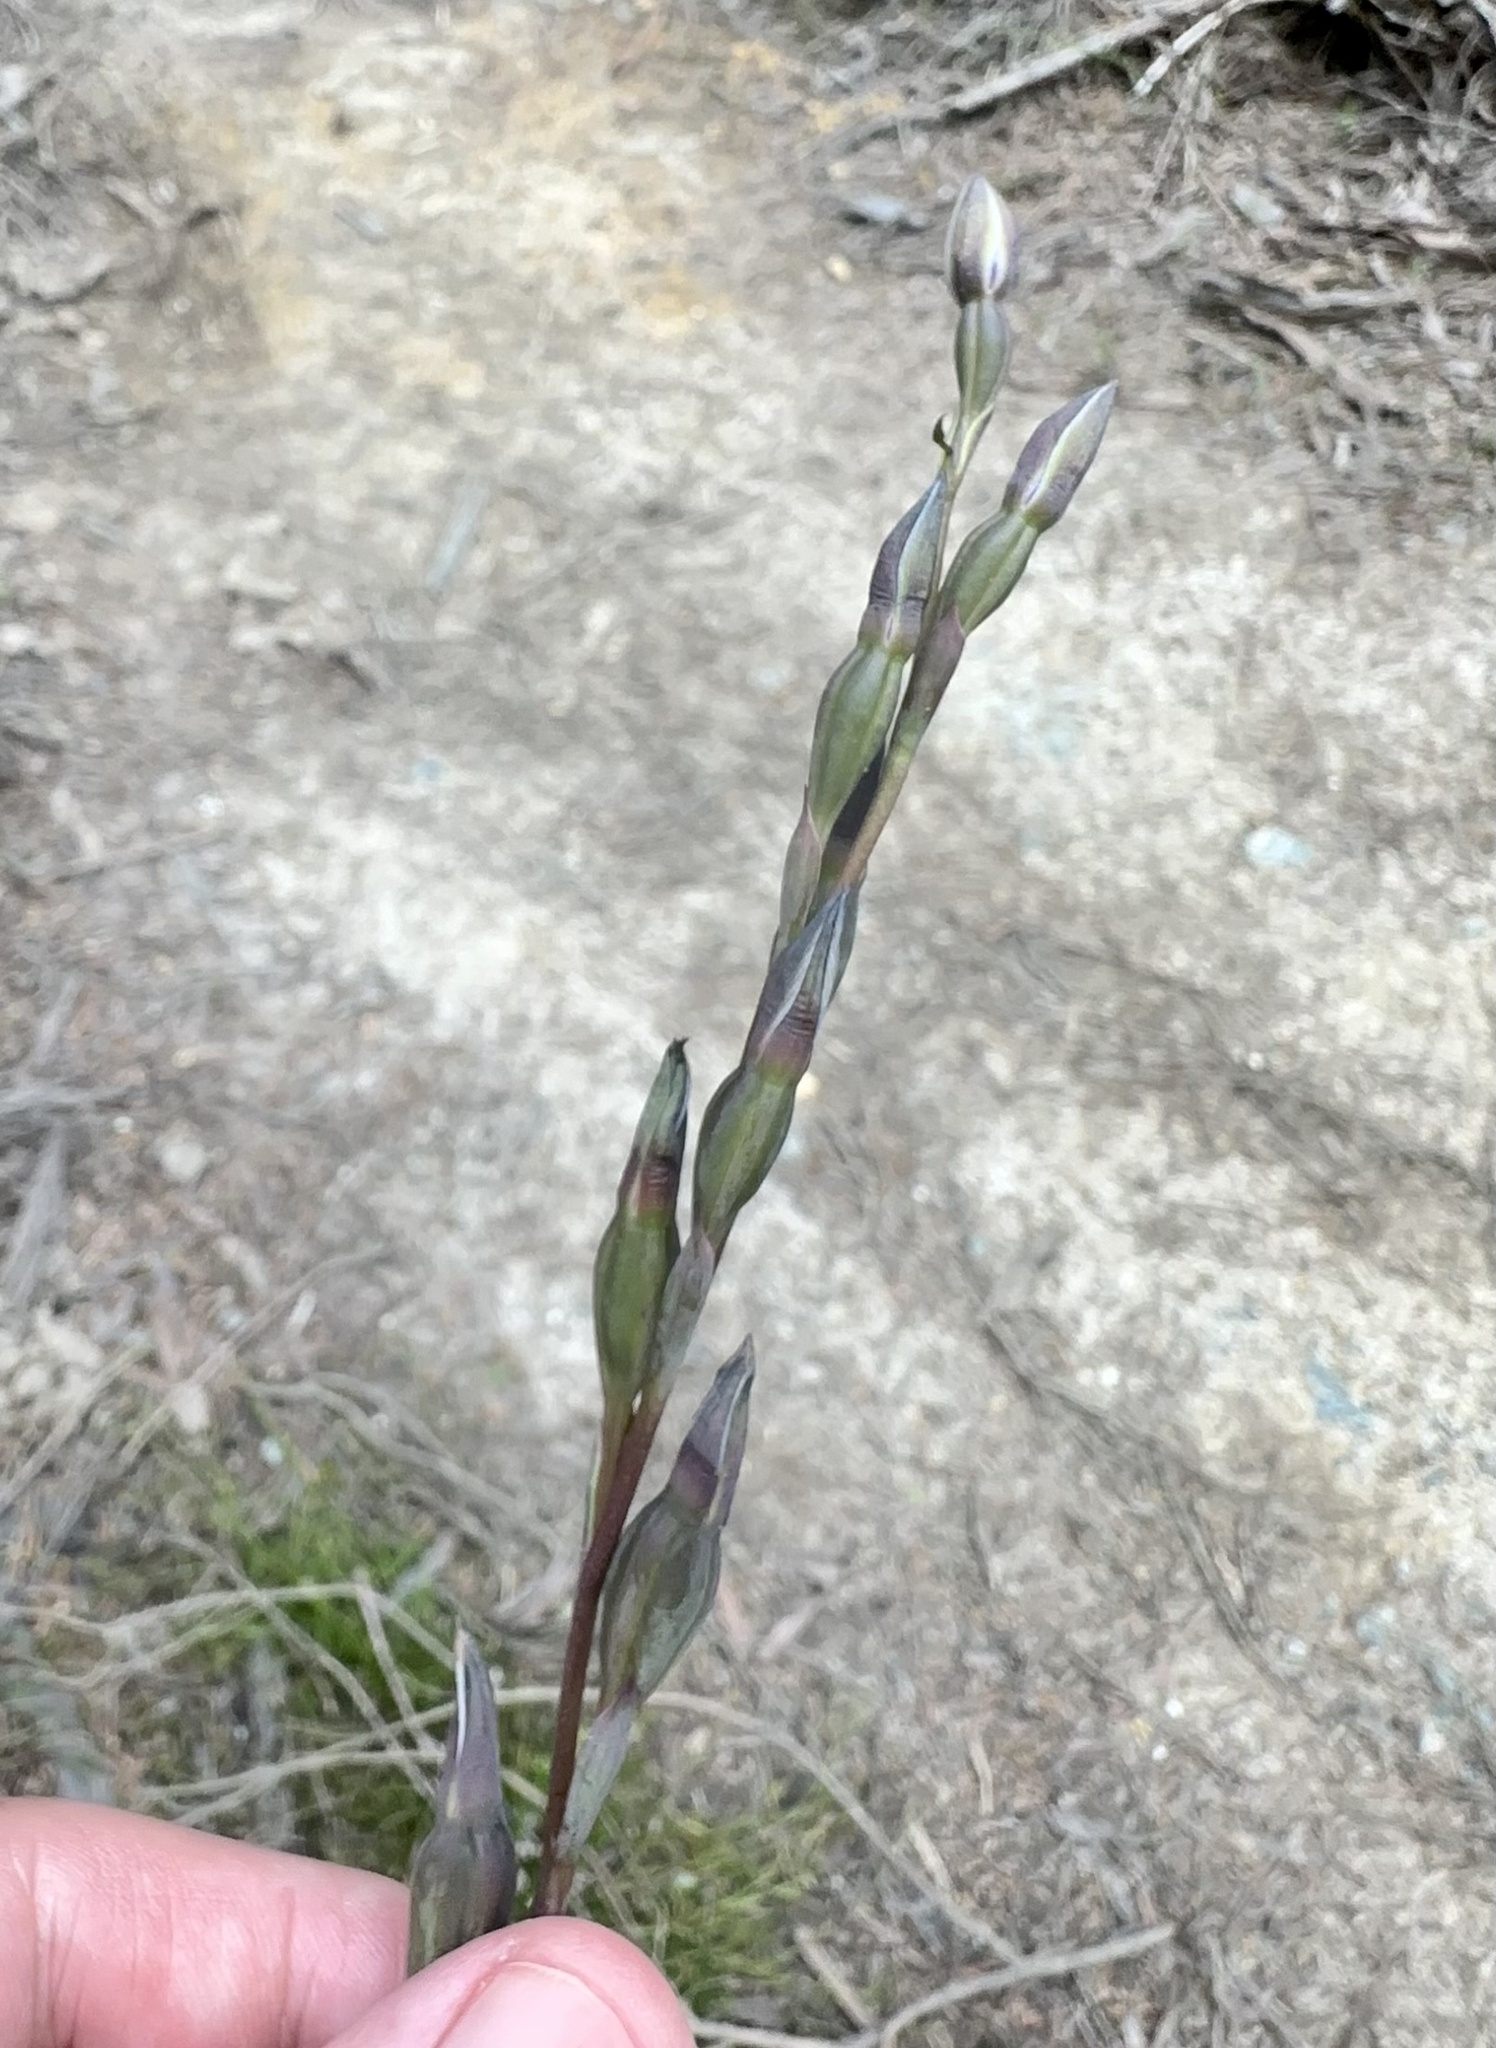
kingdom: Plantae
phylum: Tracheophyta
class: Liliopsida
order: Asparagales
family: Orchidaceae
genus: Thelymitra
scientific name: Thelymitra hatchii
